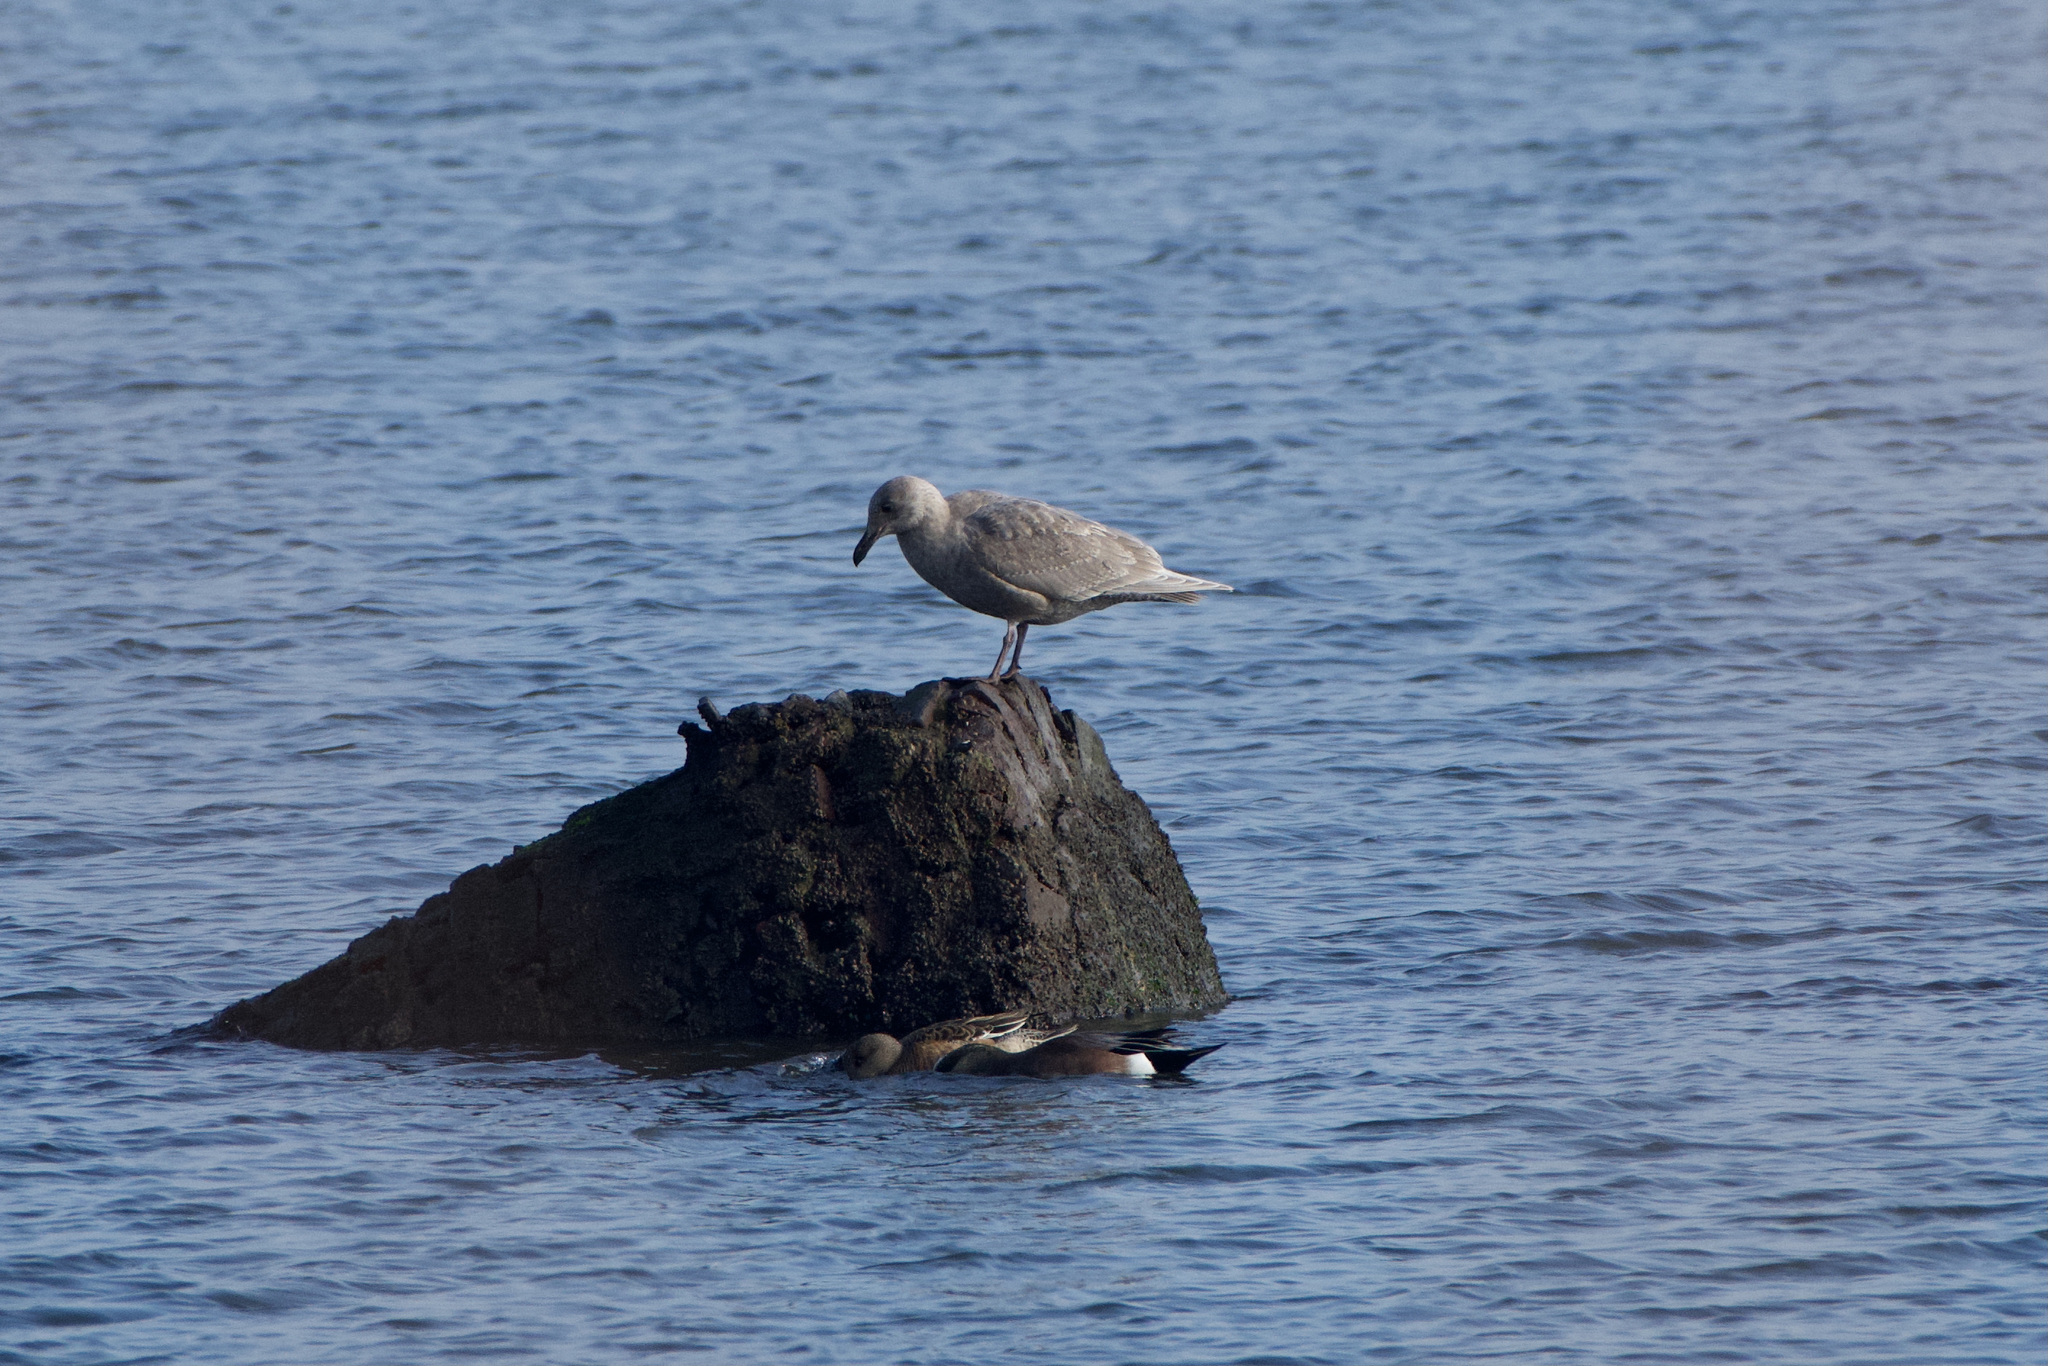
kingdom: Animalia
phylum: Chordata
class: Aves
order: Charadriiformes
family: Laridae
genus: Larus
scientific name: Larus glaucescens
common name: Glaucous-winged gull
